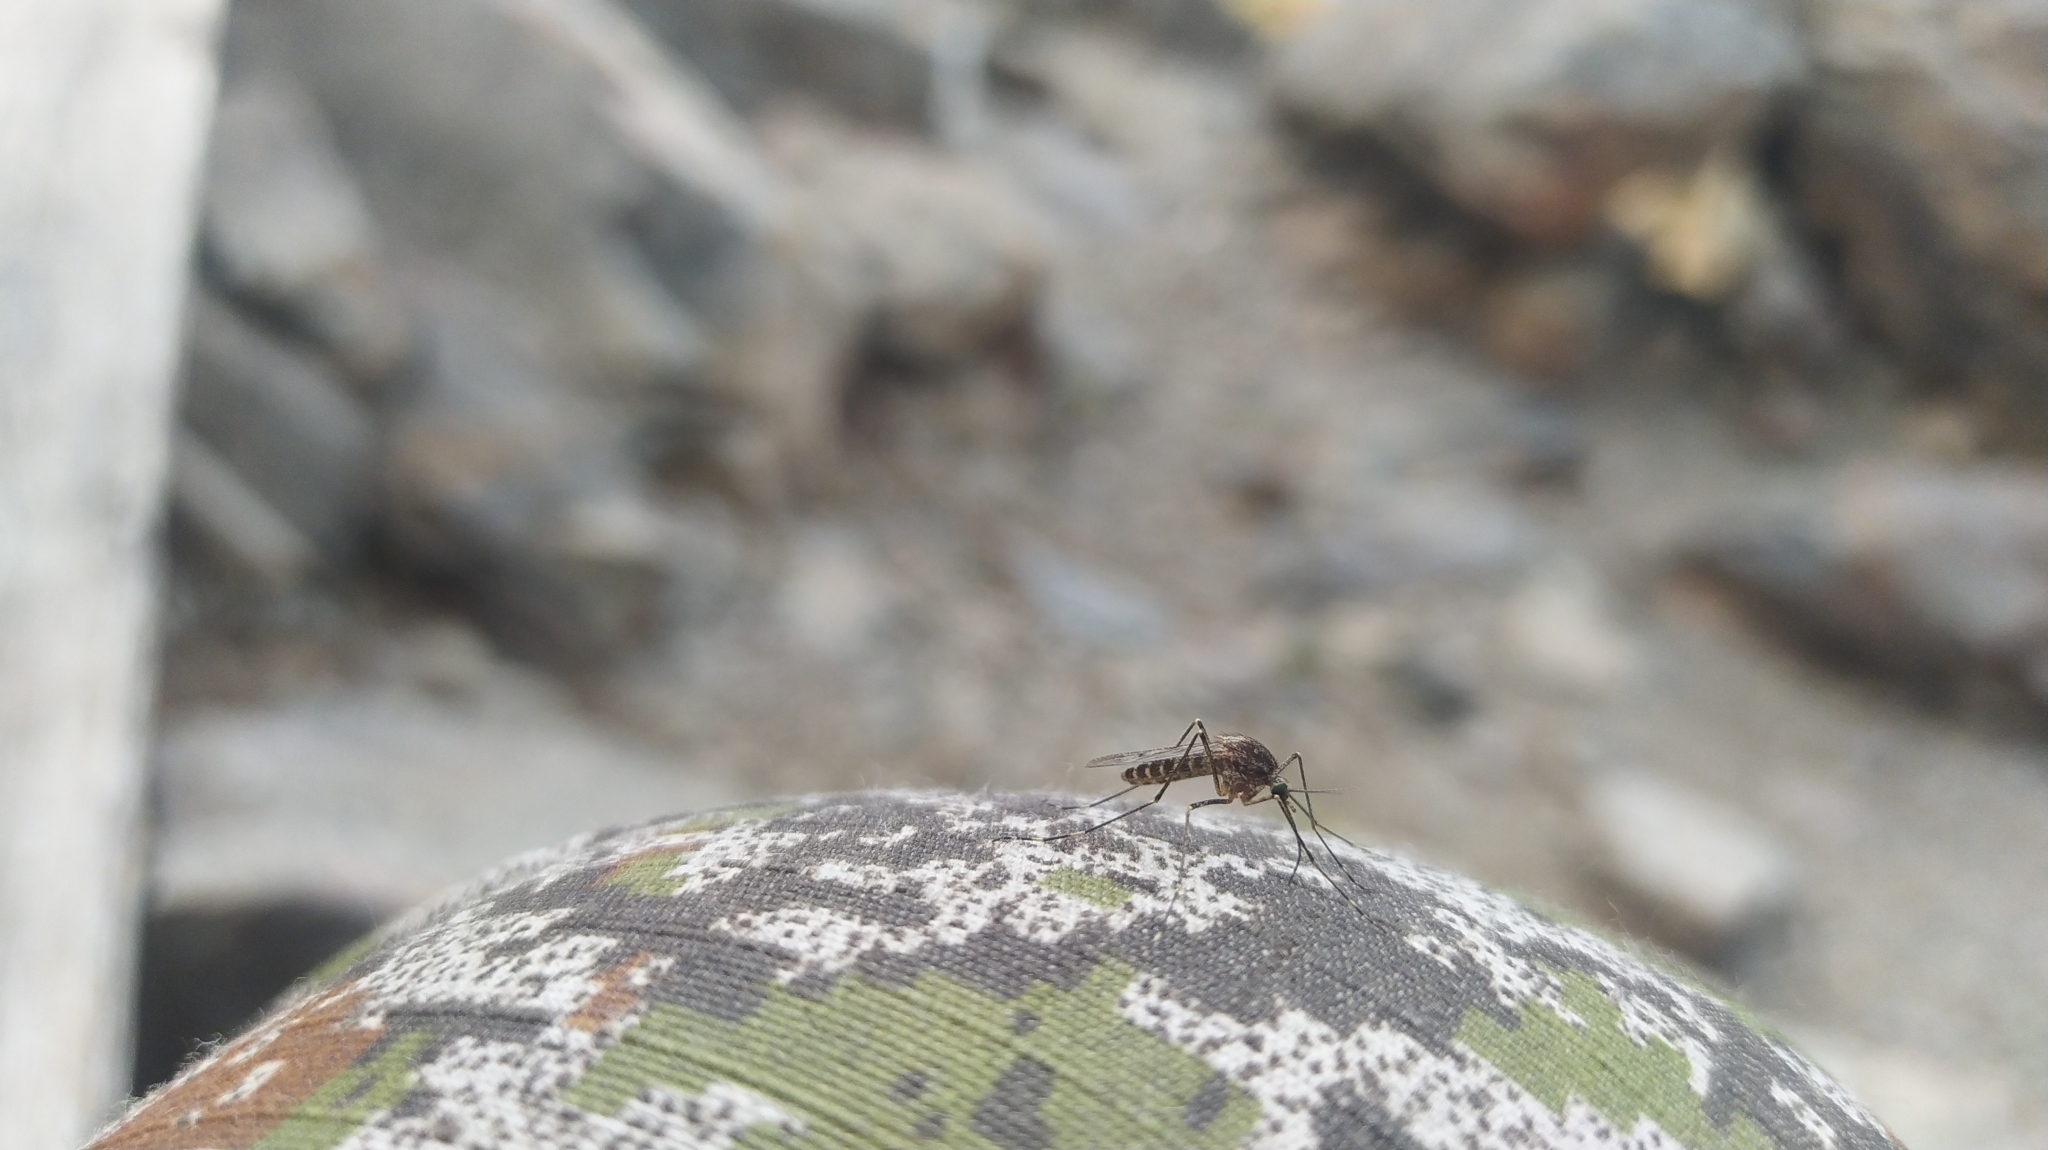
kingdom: Animalia
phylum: Arthropoda
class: Insecta
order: Diptera
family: Culicidae
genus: Culiseta
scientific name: Culiseta alaskaensis
